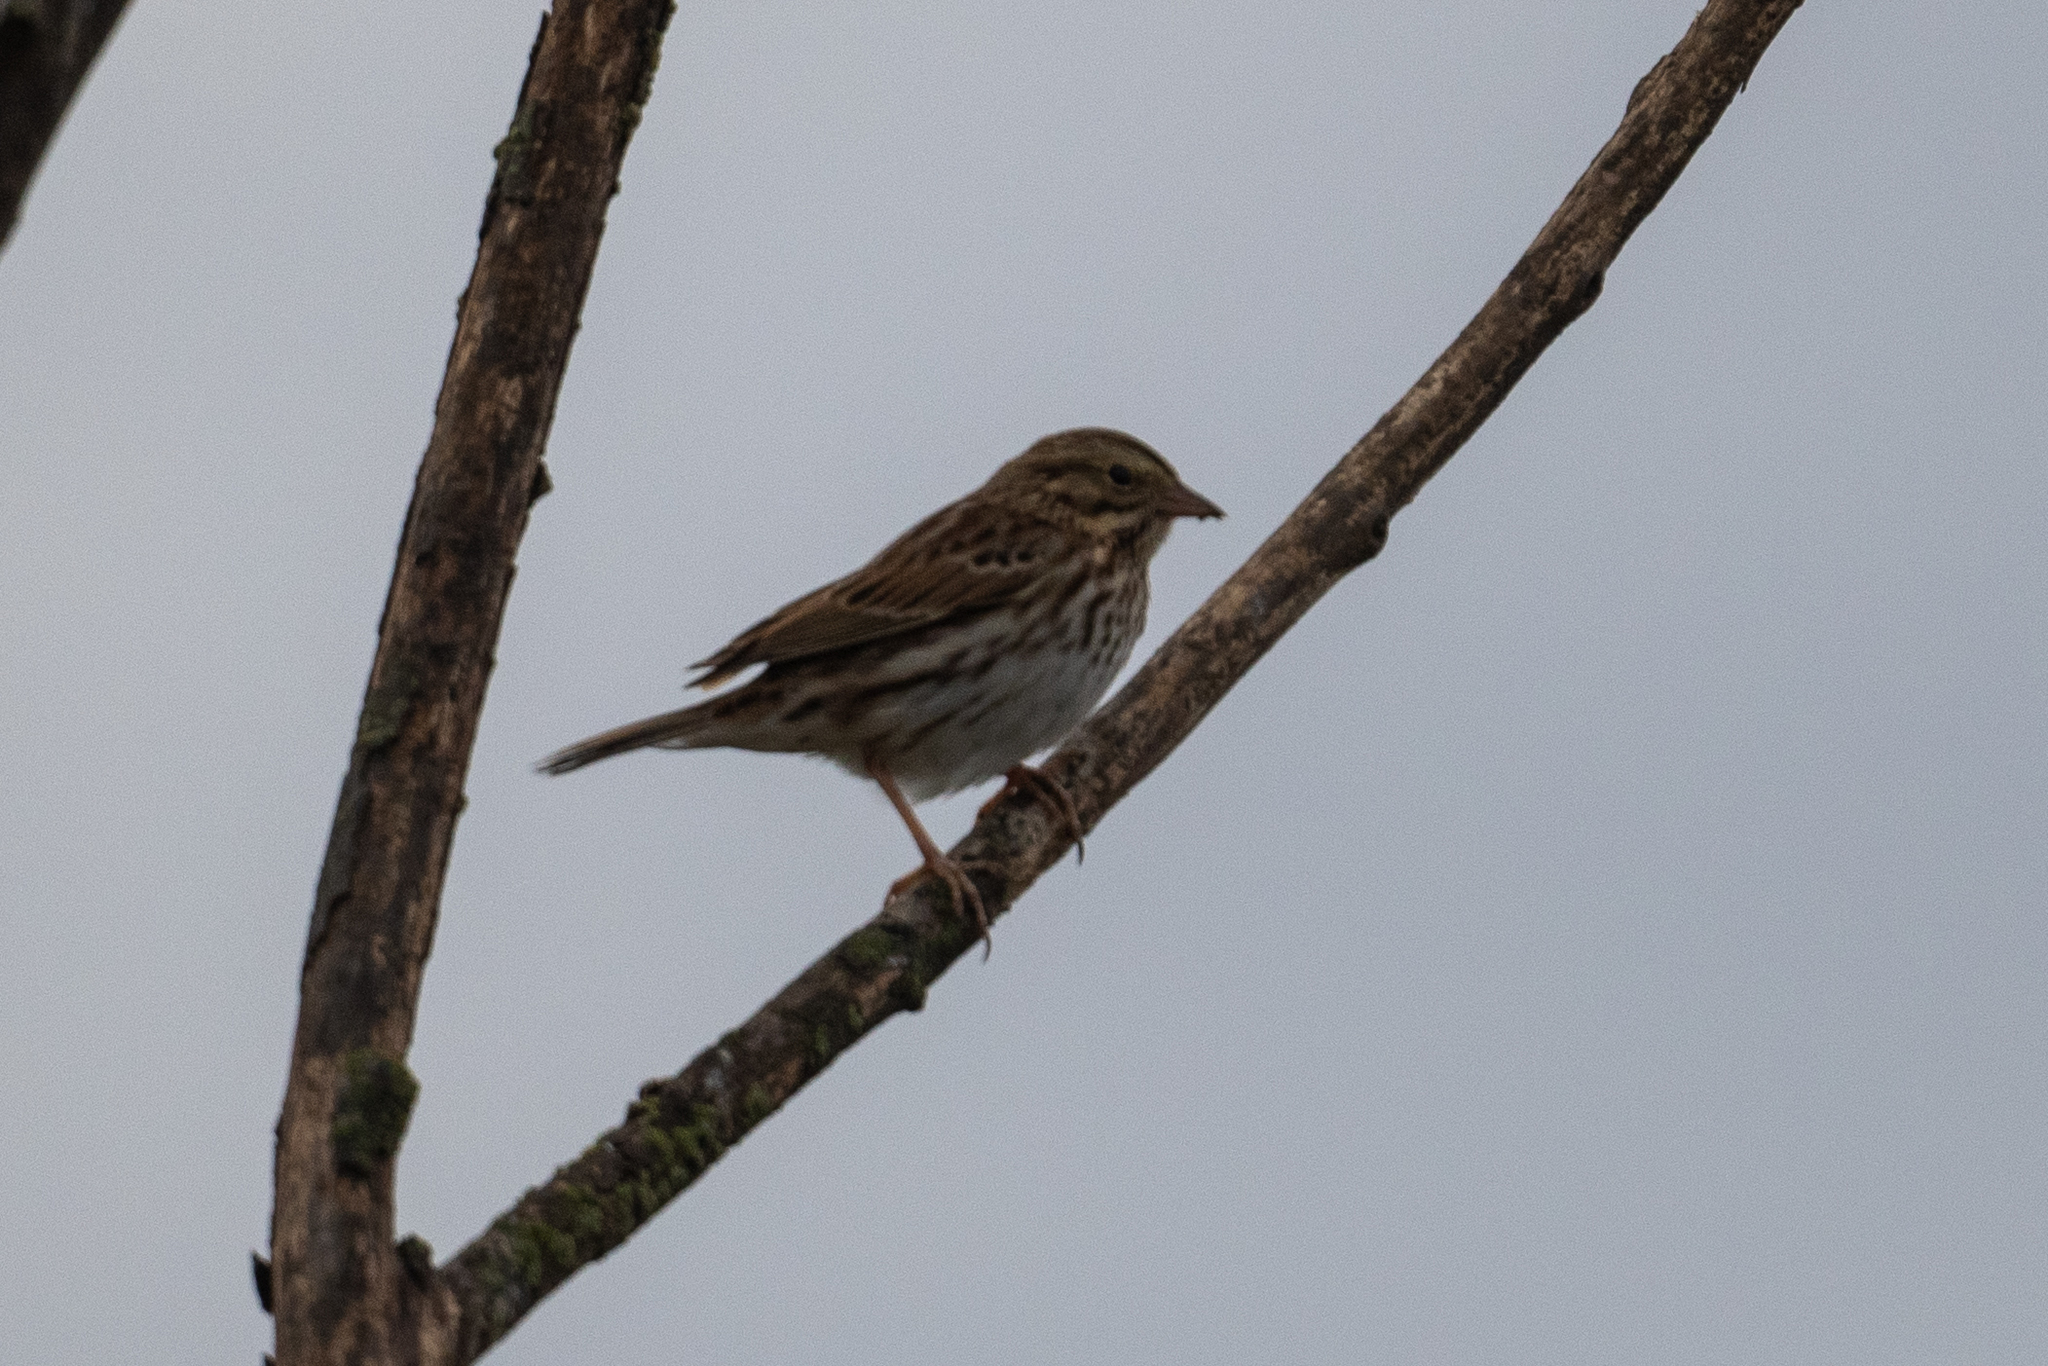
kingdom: Animalia
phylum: Chordata
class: Aves
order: Passeriformes
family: Passerellidae
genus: Passerculus
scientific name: Passerculus sandwichensis
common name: Savannah sparrow
